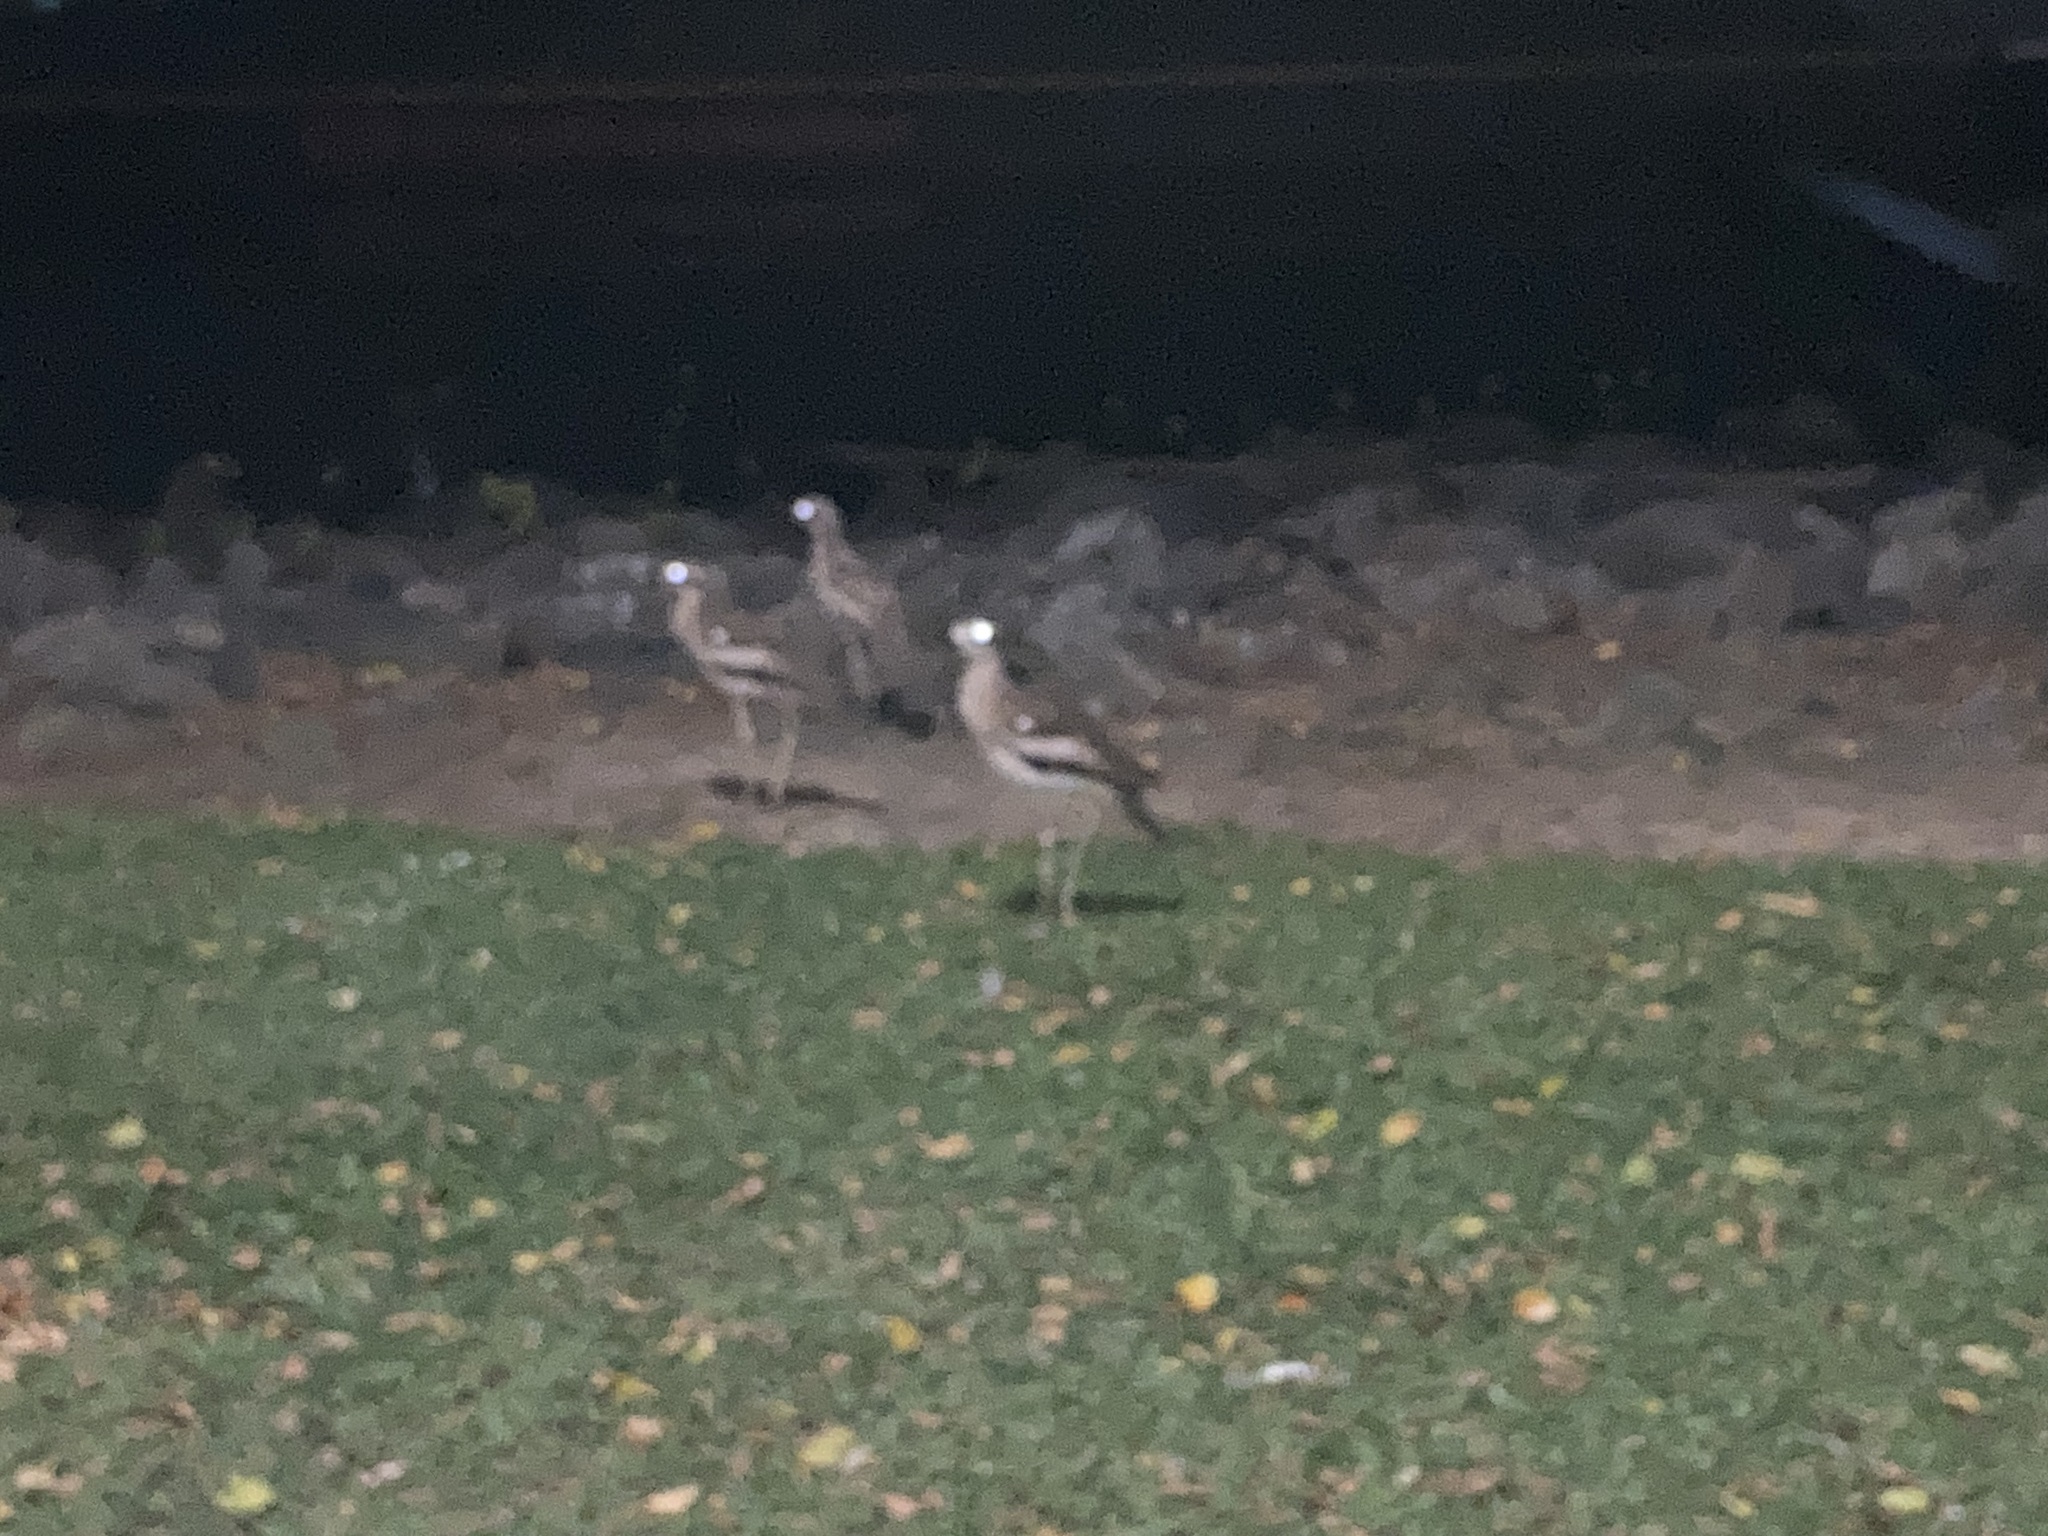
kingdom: Animalia
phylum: Chordata
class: Aves
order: Charadriiformes
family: Burhinidae
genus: Burhinus
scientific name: Burhinus grallarius
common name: Bush stone-curlew
